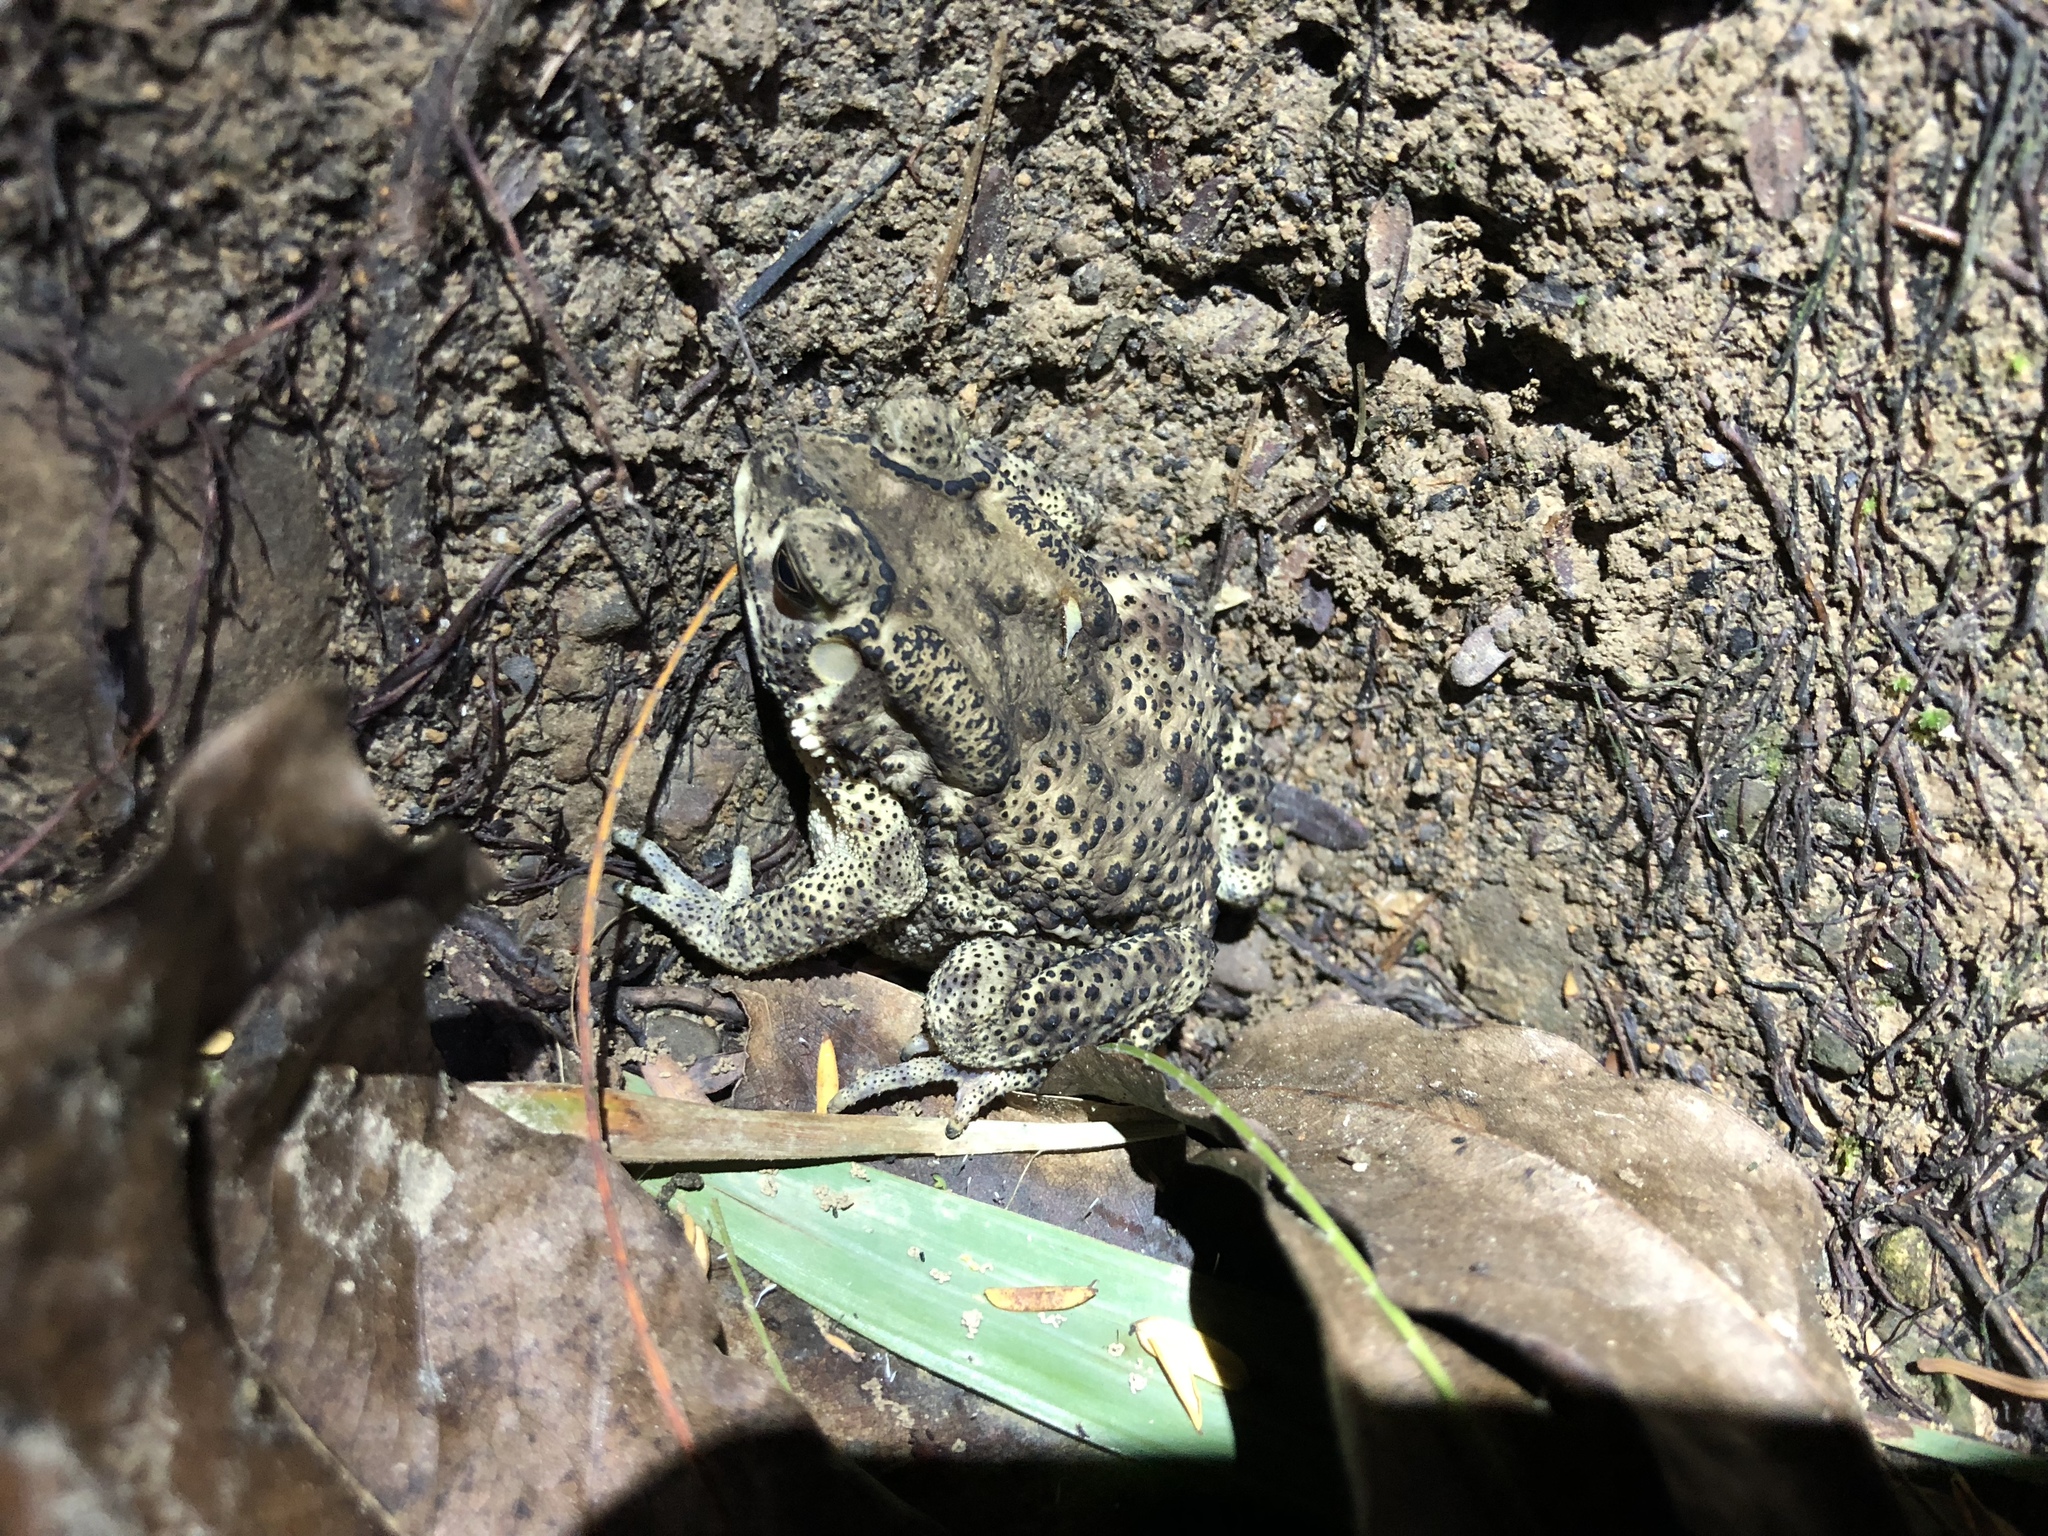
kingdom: Animalia
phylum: Chordata
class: Amphibia
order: Anura
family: Bufonidae
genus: Duttaphrynus
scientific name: Duttaphrynus melanostictus
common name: Common sunda toad
